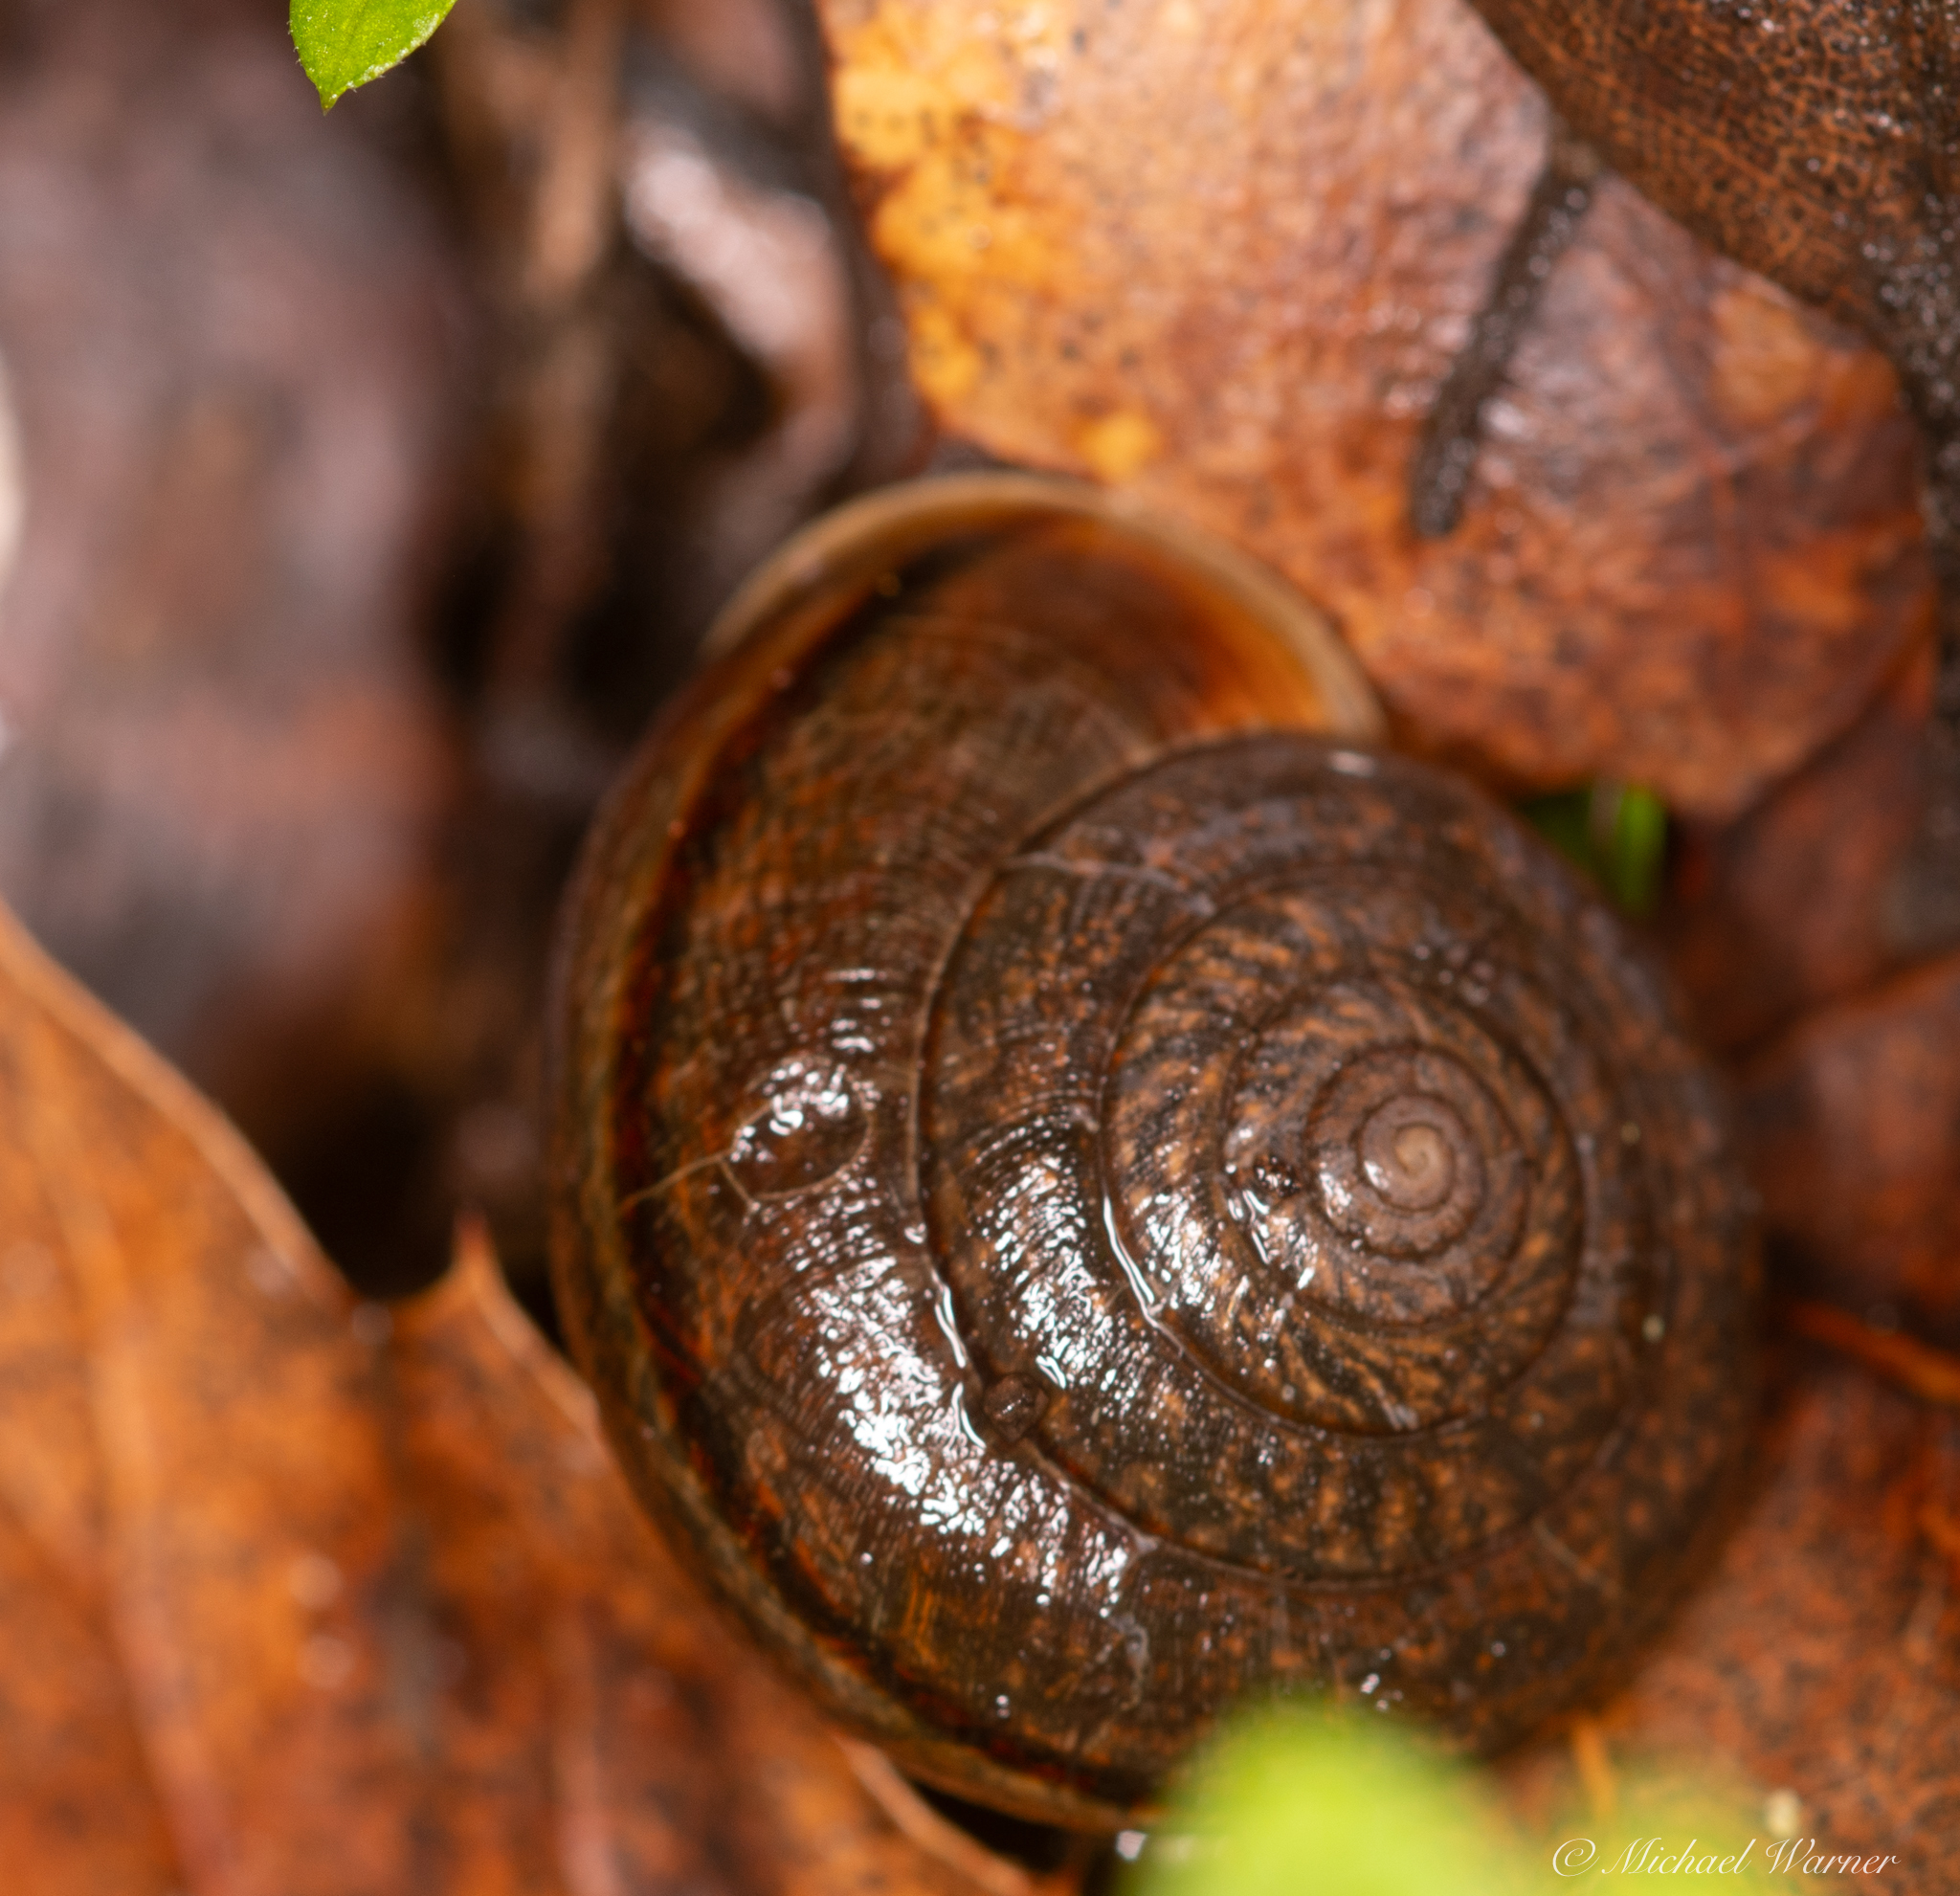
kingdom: Animalia
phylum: Mollusca
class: Gastropoda
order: Stylommatophora
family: Xanthonychidae
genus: Helminthoglypta
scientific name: Helminthoglypta diabloensis
